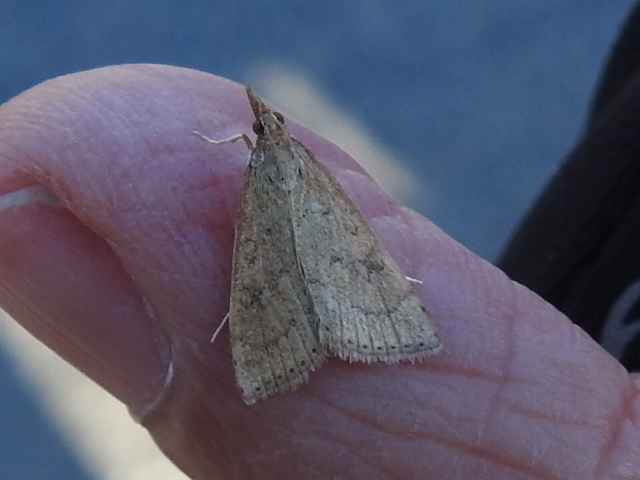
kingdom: Animalia
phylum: Arthropoda
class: Insecta
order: Lepidoptera
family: Crambidae
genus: Udea
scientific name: Udea rubigalis
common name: Celery leaftier moth
